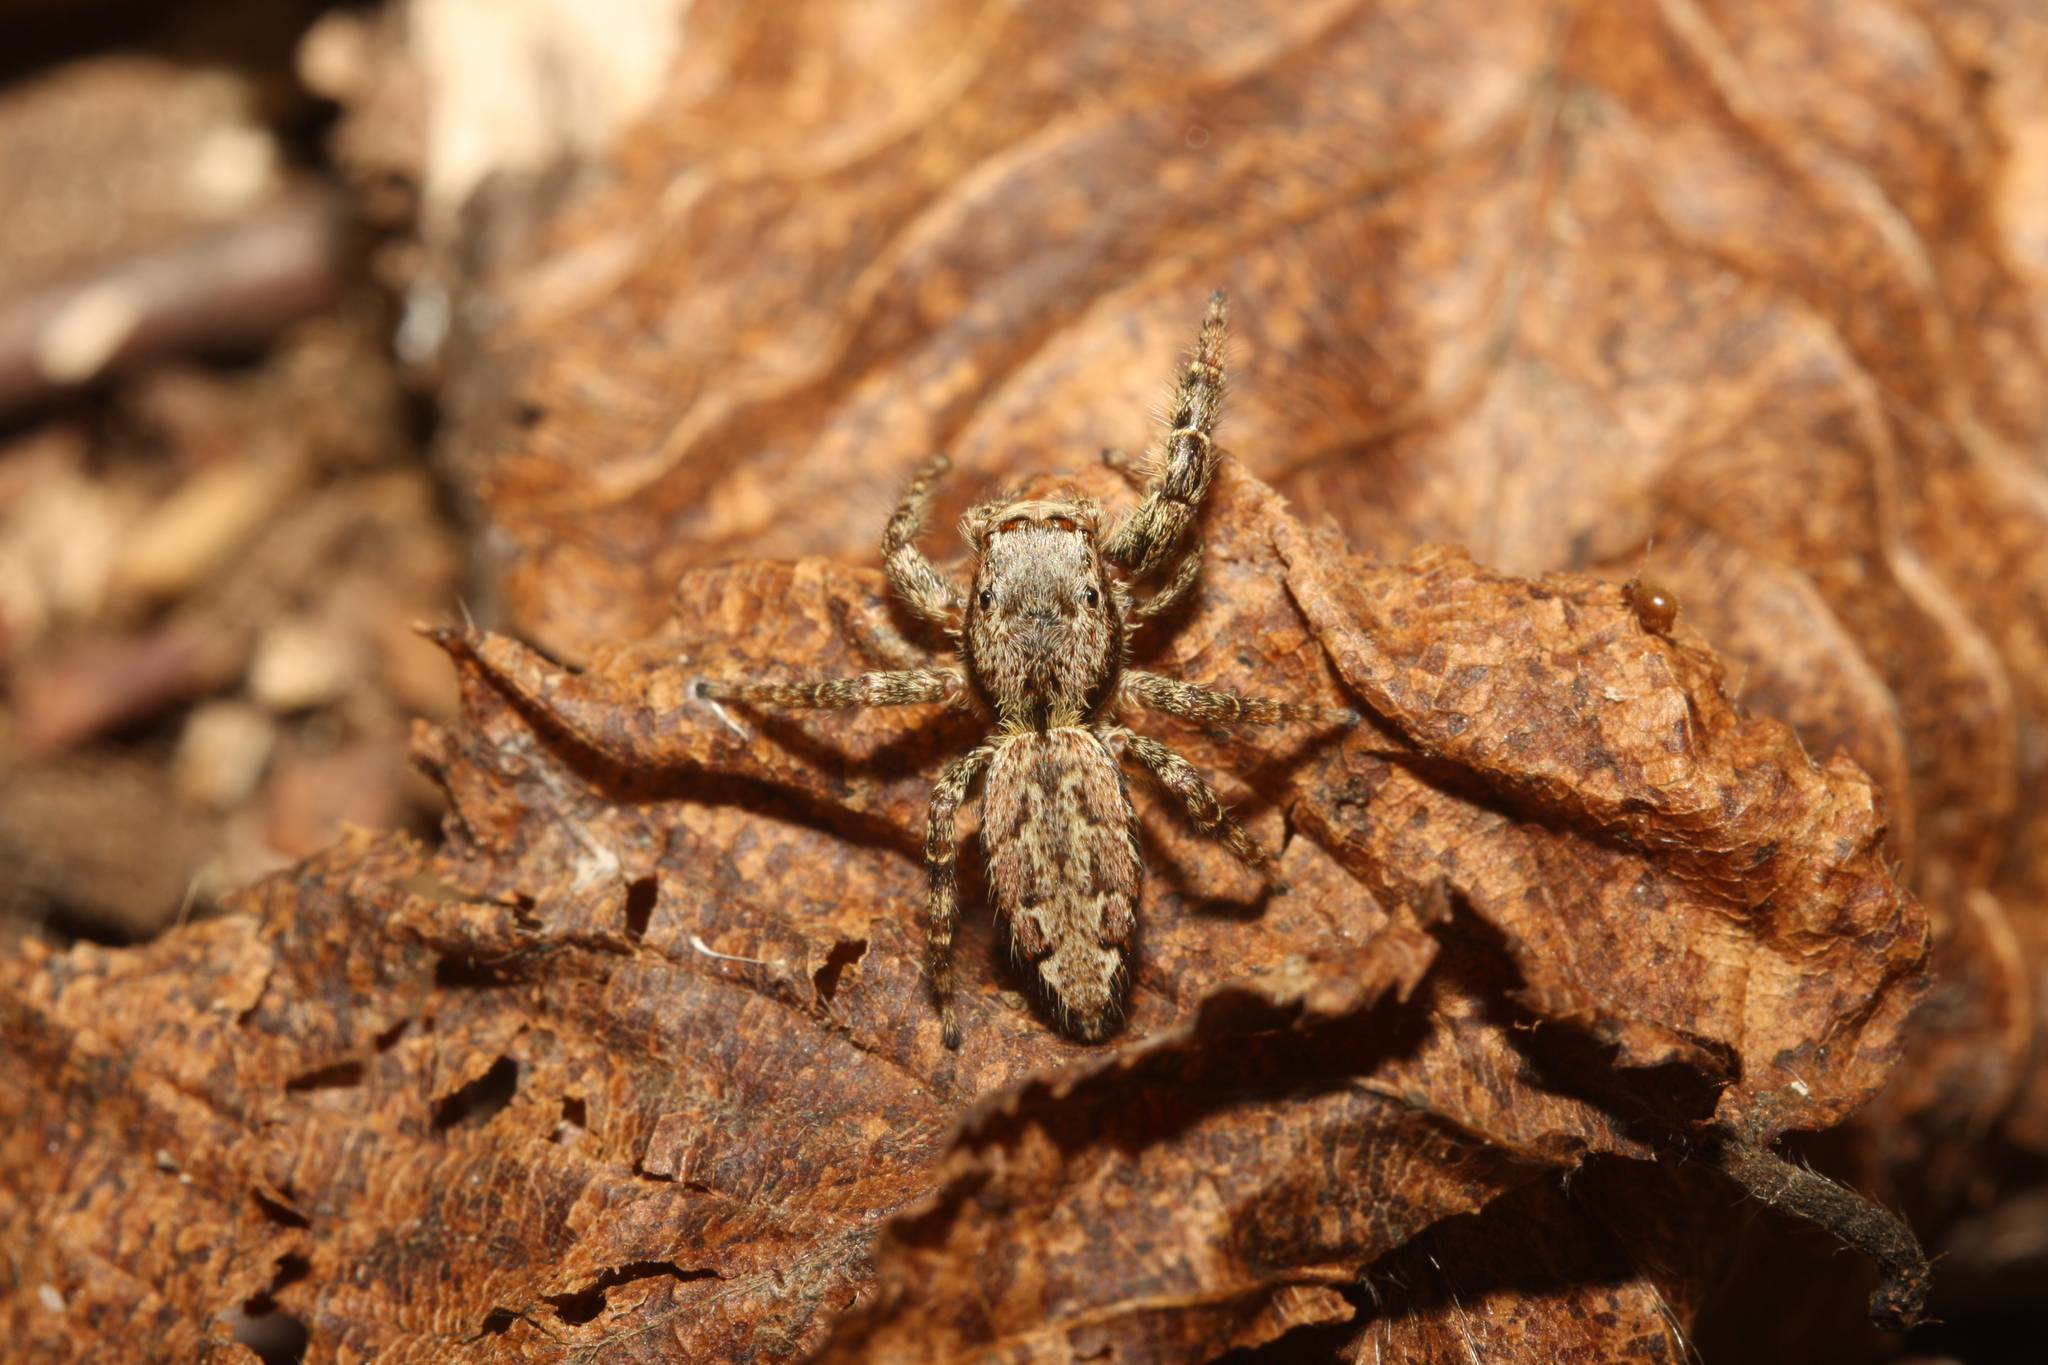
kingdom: Animalia
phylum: Arthropoda
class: Arachnida
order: Araneae
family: Salticidae
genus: Marpissa
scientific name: Marpissa muscosa
